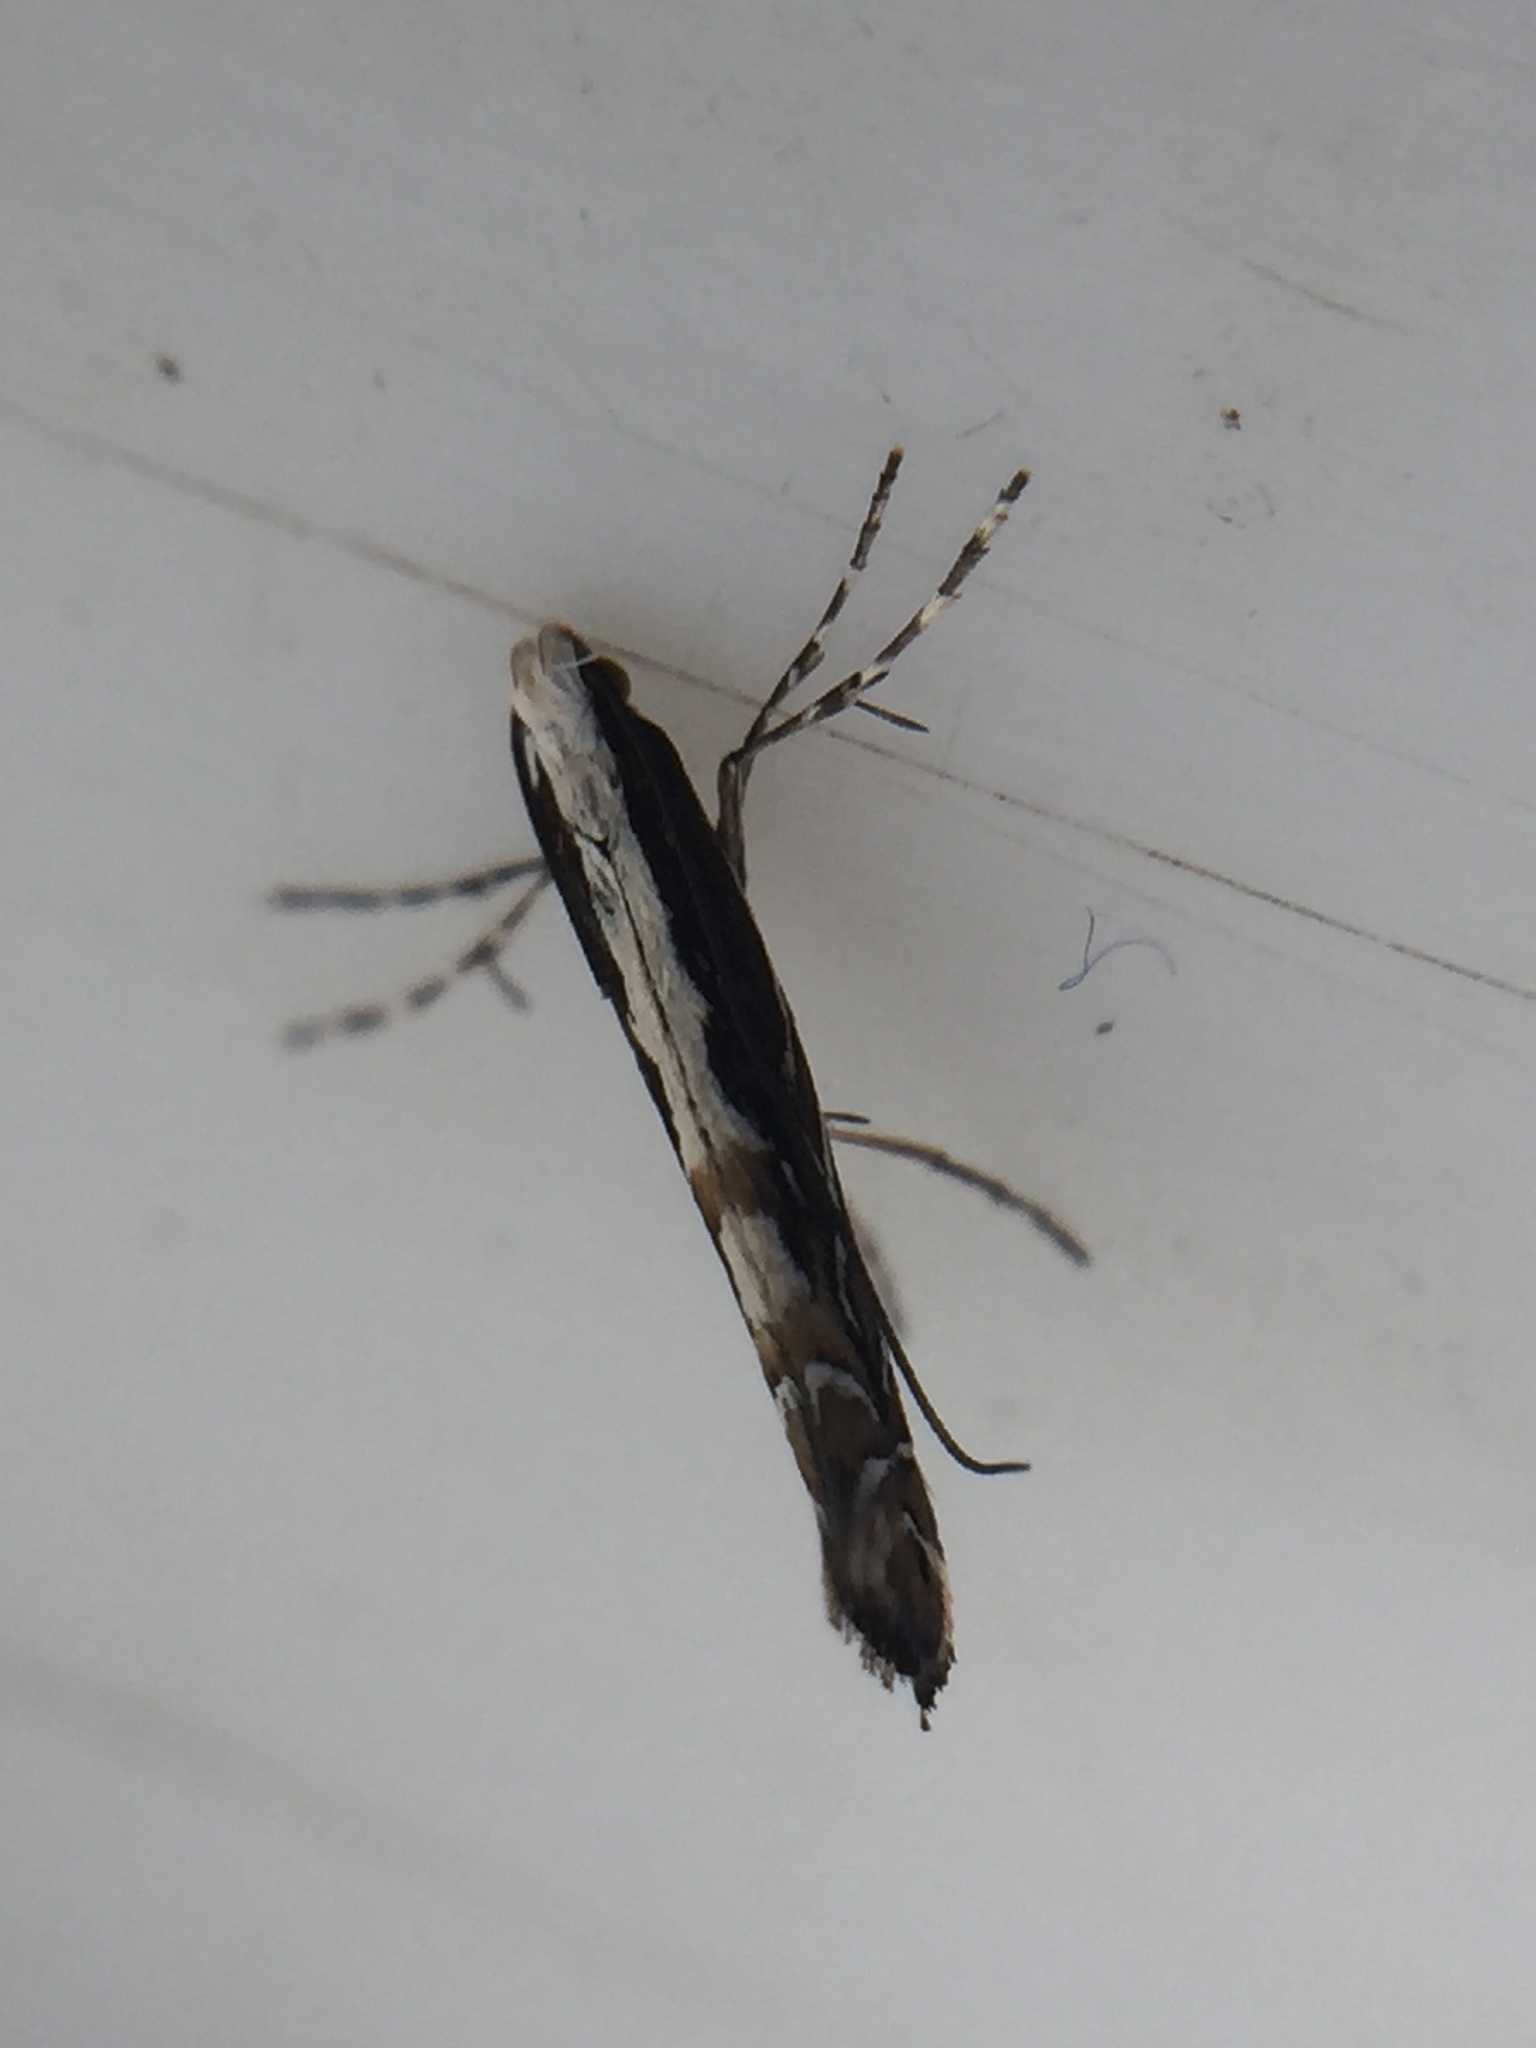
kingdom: Animalia
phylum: Arthropoda
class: Insecta
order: Lepidoptera
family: Gracillariidae
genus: Parectopa
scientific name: Parectopa alysidota
